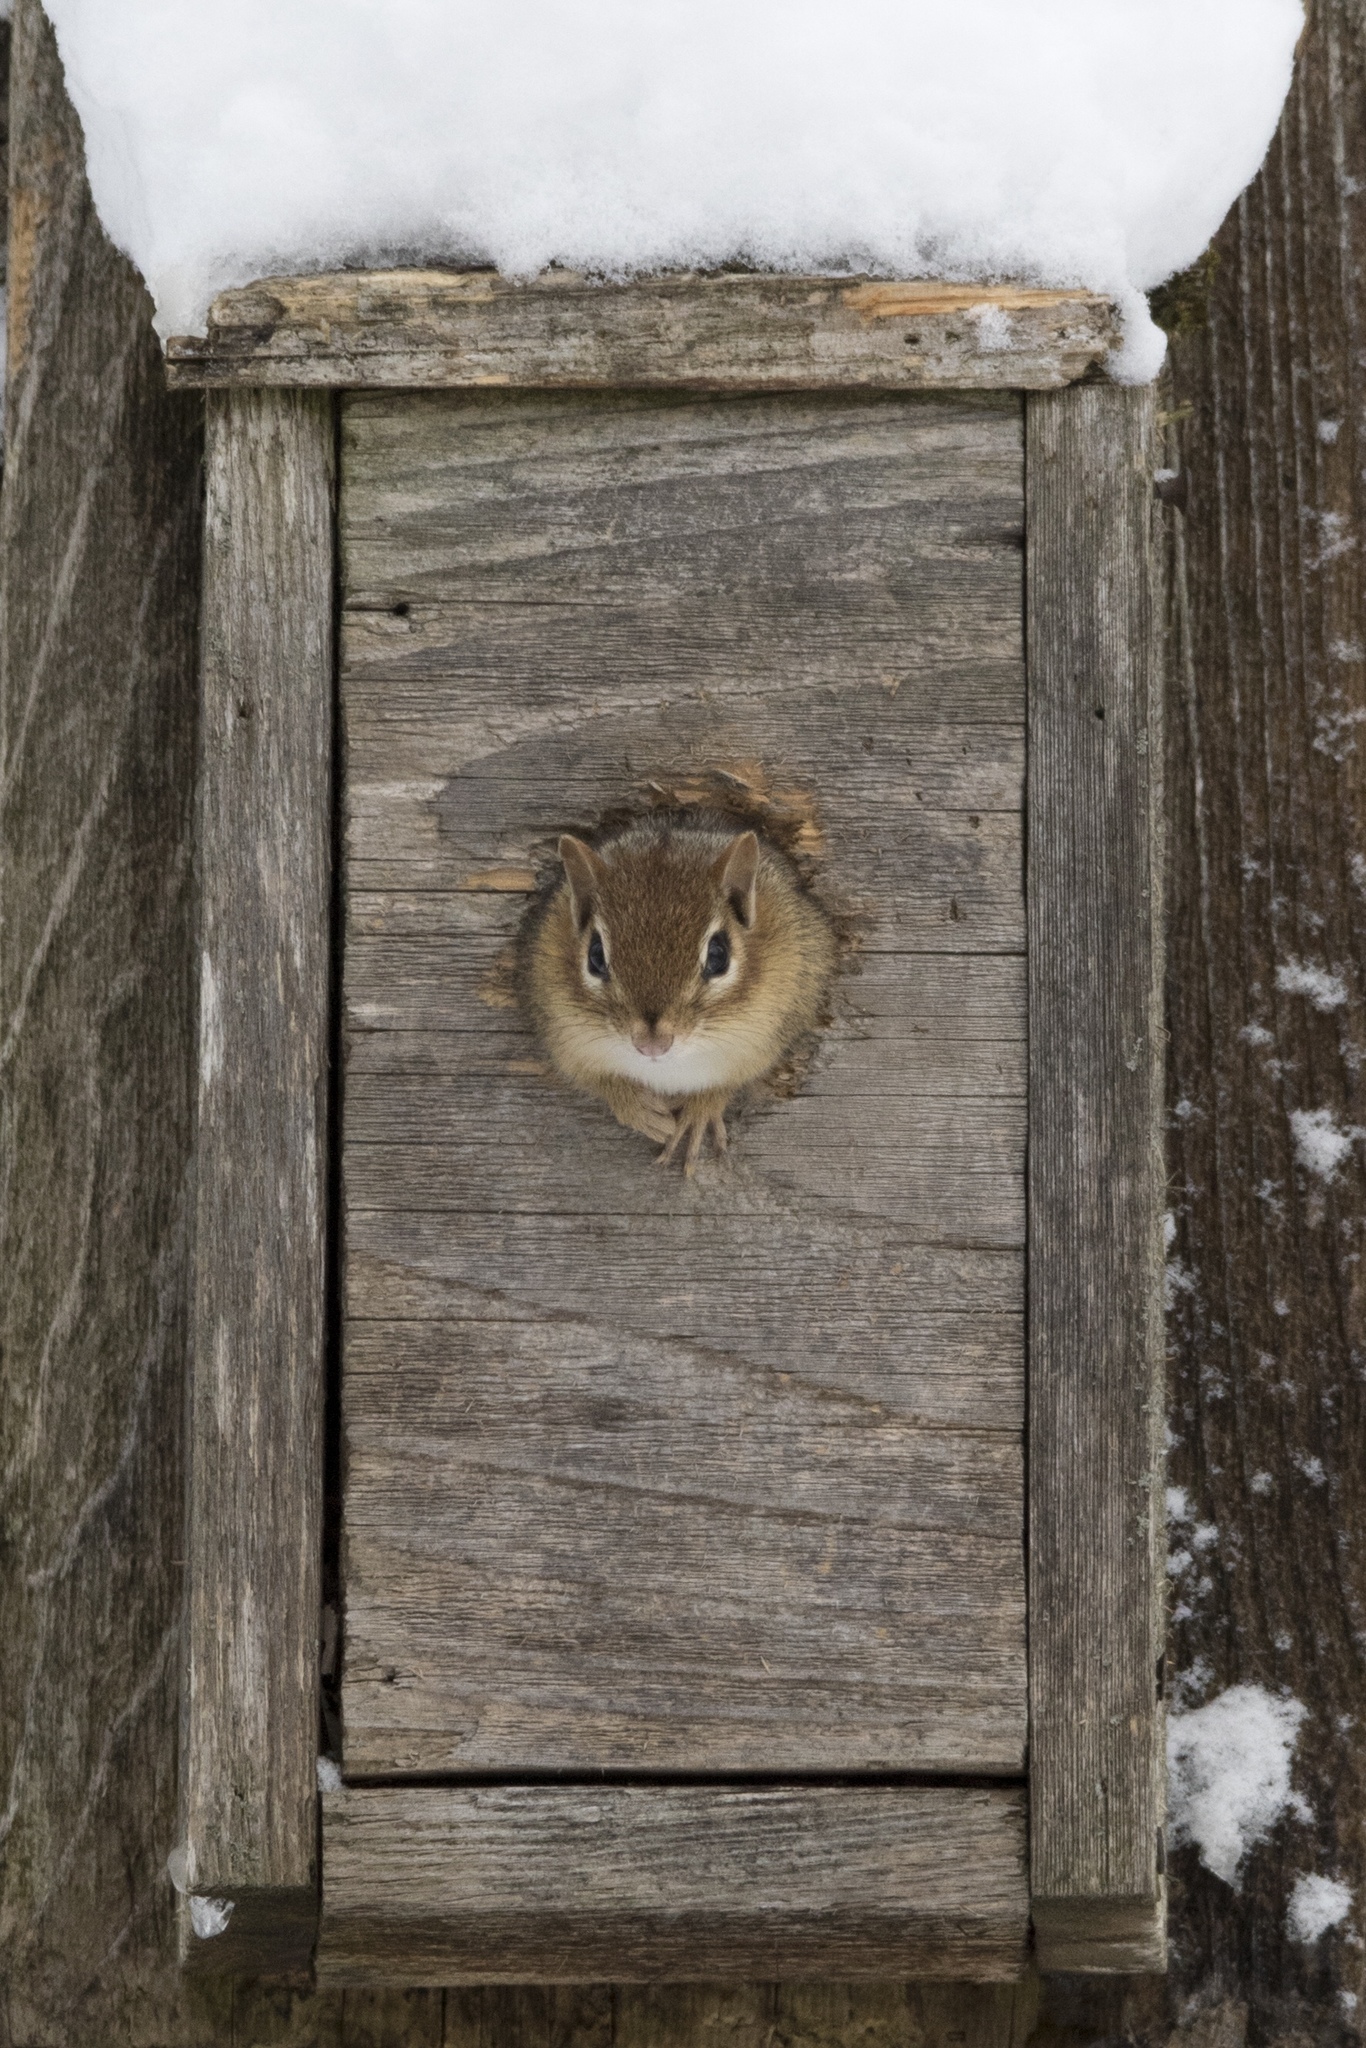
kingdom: Animalia
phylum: Chordata
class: Mammalia
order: Rodentia
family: Sciuridae
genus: Tamias
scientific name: Tamias striatus
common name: Eastern chipmunk
